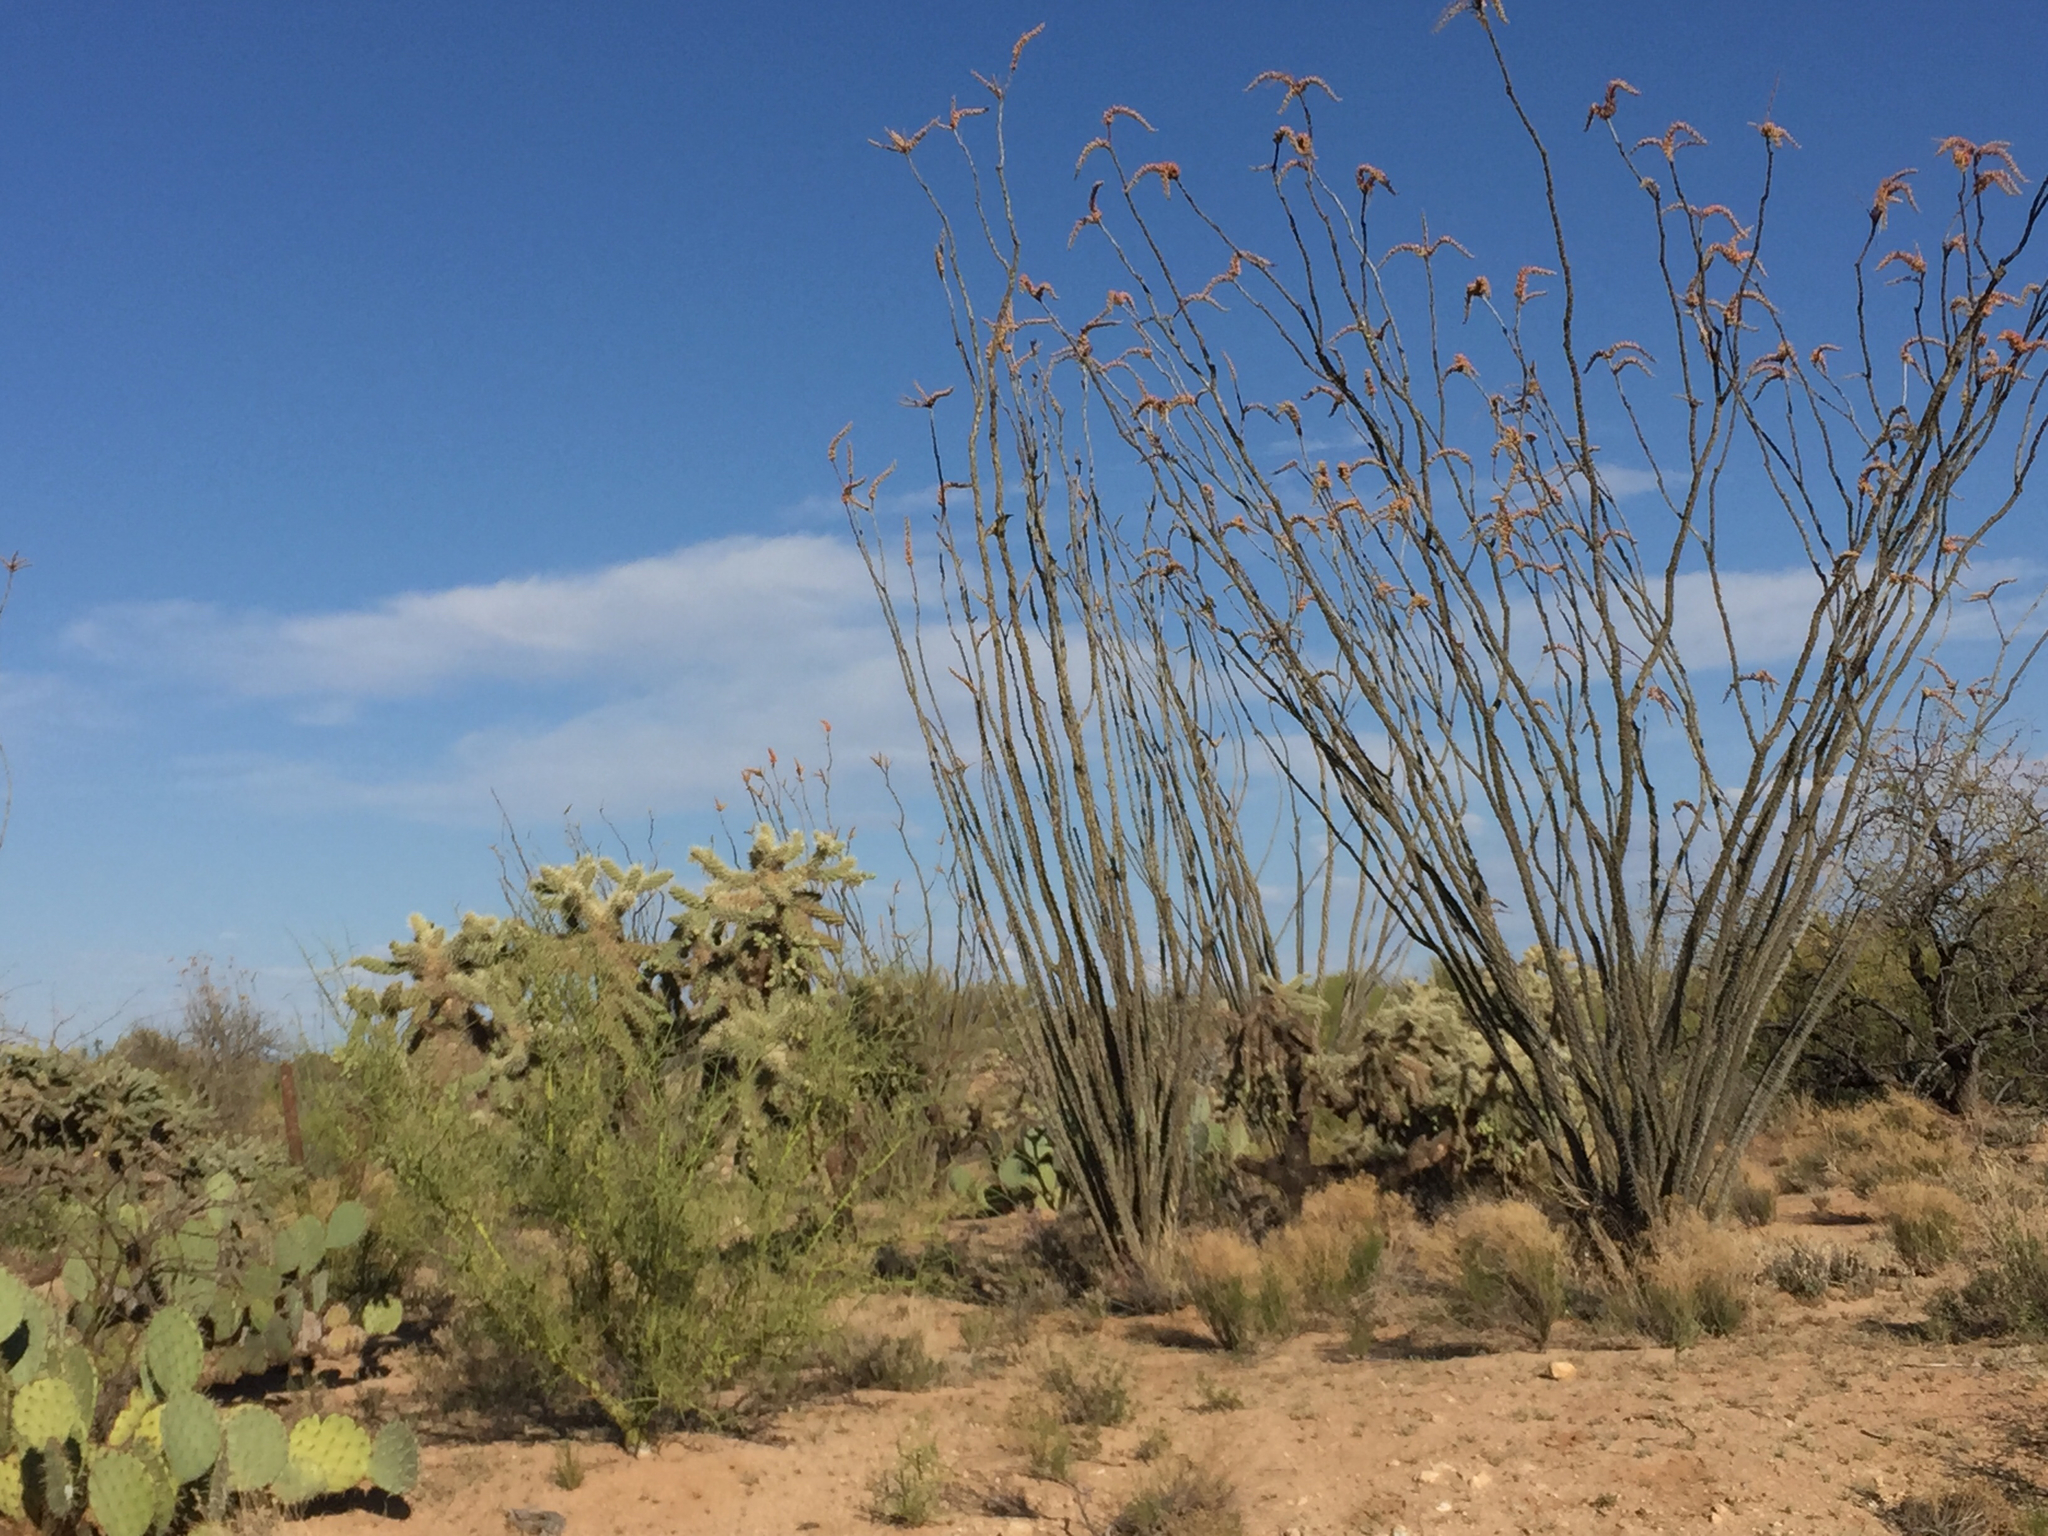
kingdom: Plantae
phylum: Tracheophyta
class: Magnoliopsida
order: Ericales
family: Fouquieriaceae
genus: Fouquieria
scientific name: Fouquieria splendens
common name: Vine-cactus
